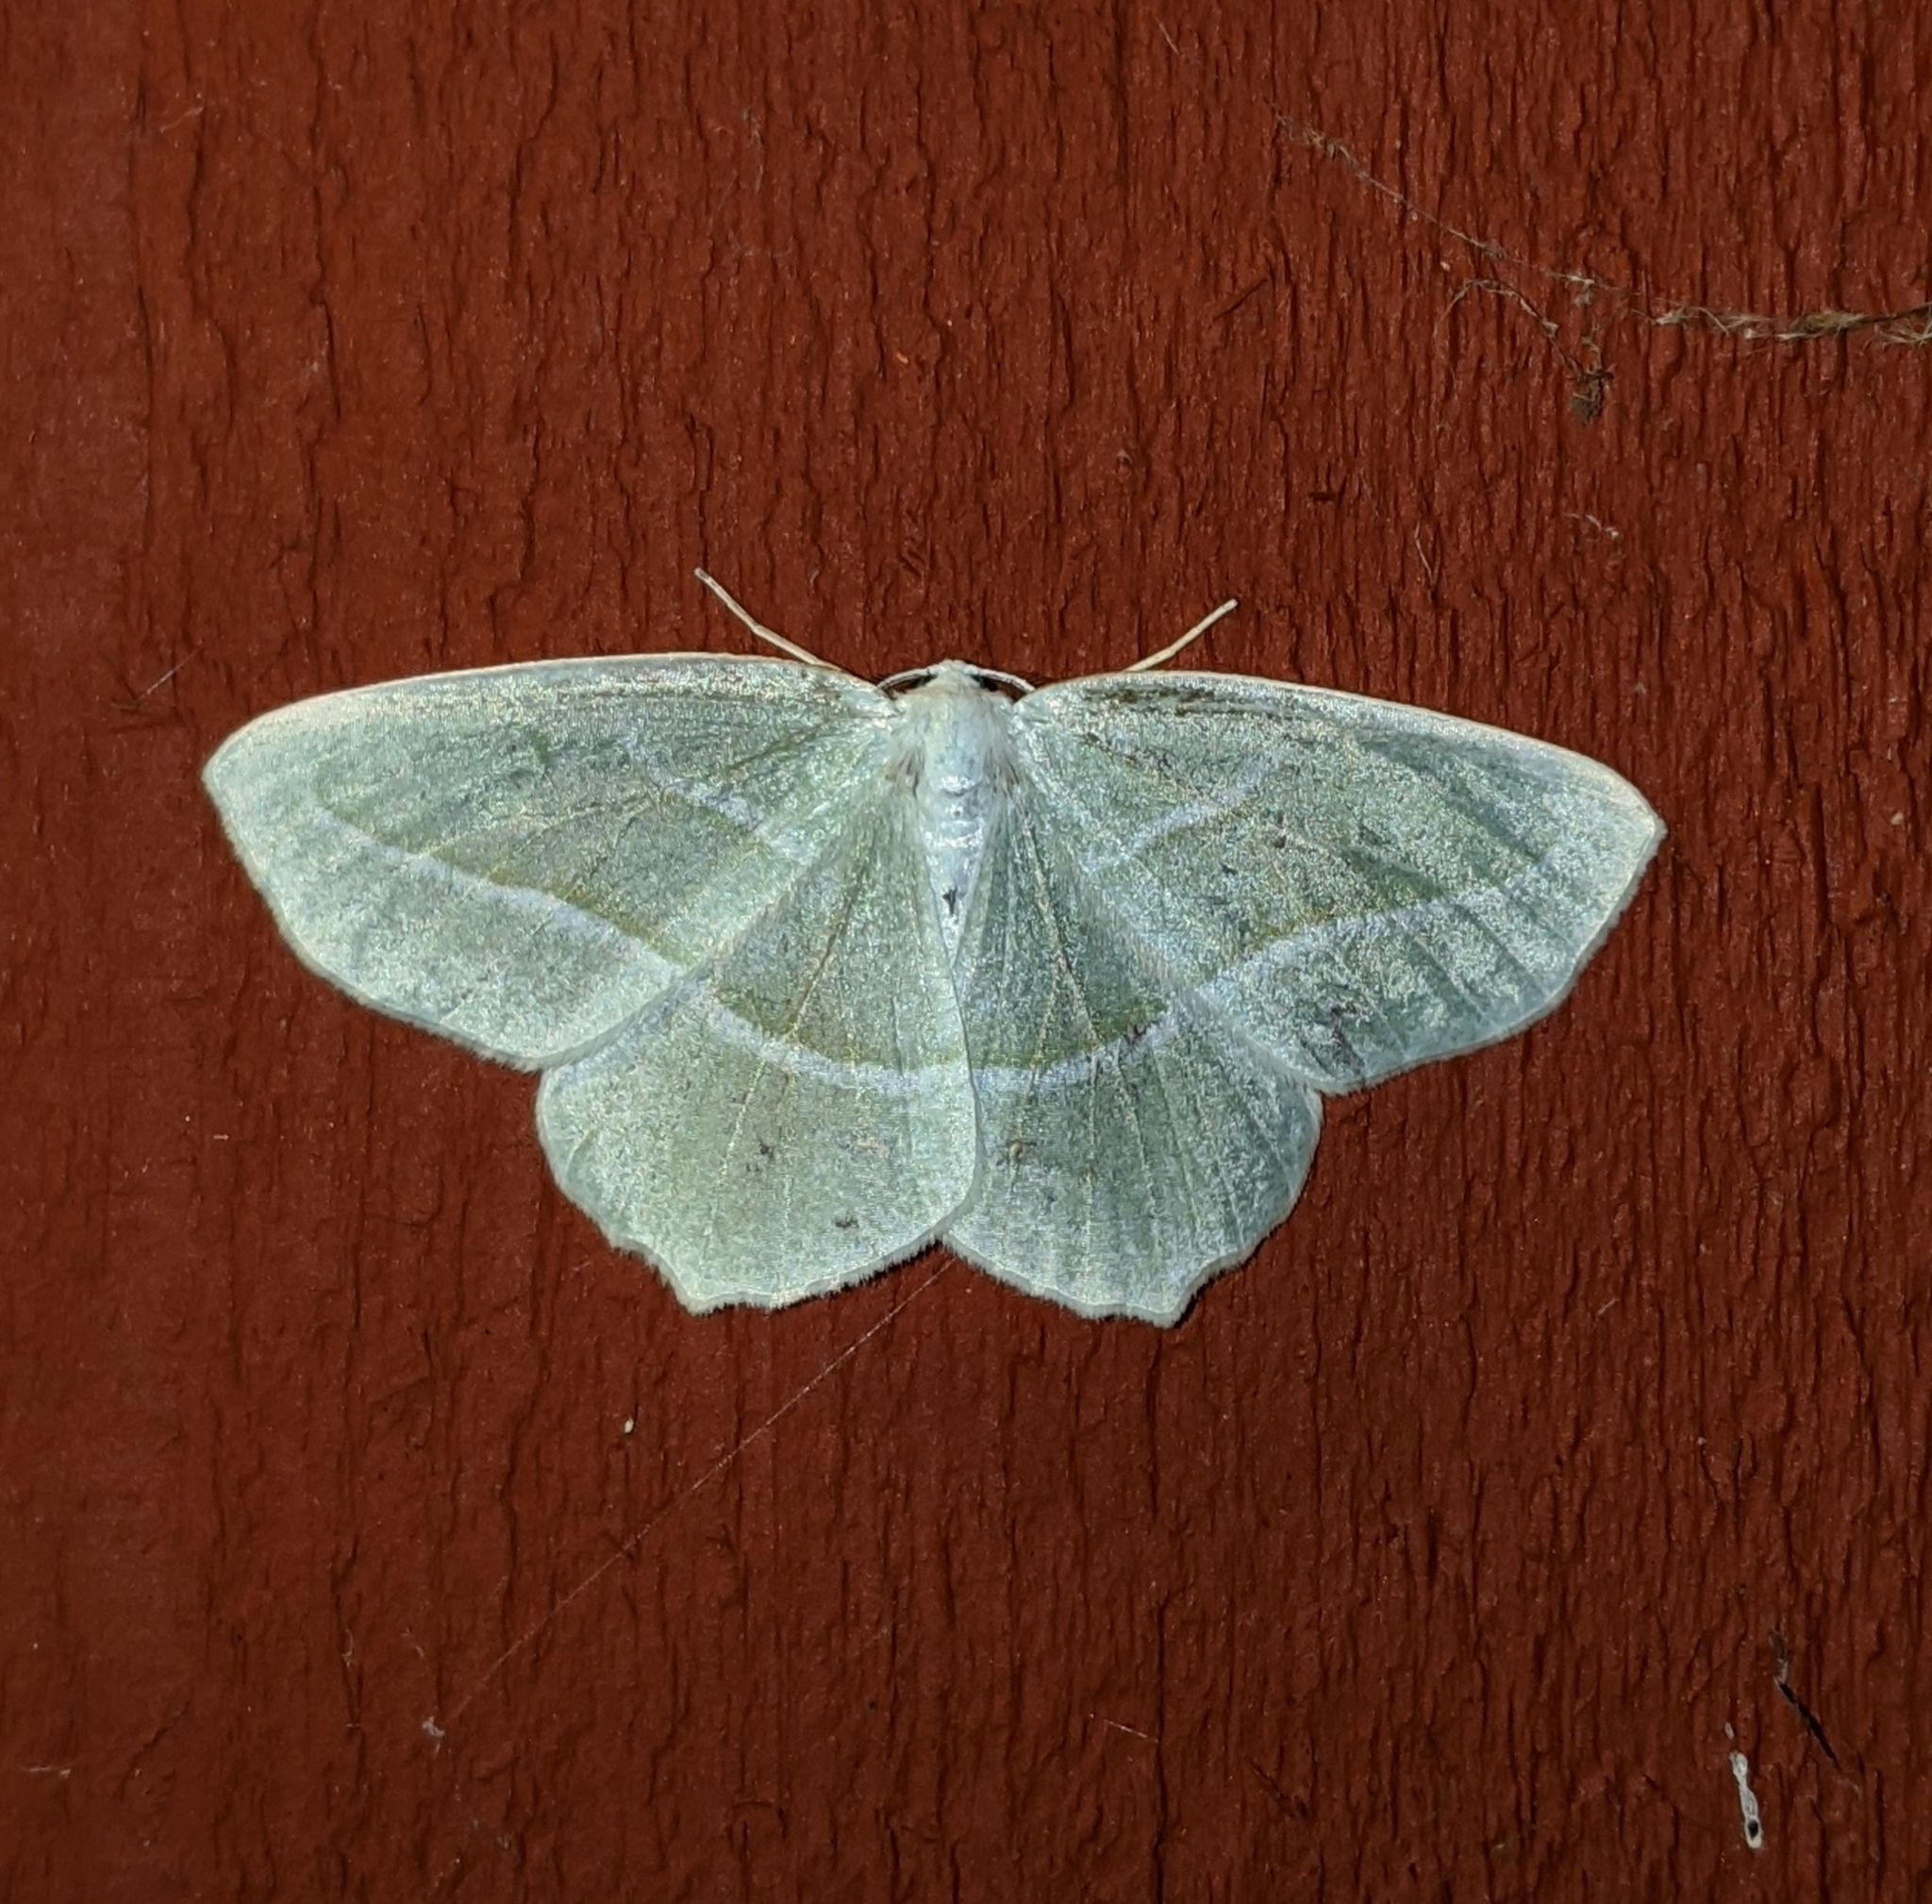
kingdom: Animalia
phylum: Arthropoda
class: Insecta
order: Lepidoptera
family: Geometridae
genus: Campaea
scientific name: Campaea perlata
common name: Fringed looper
